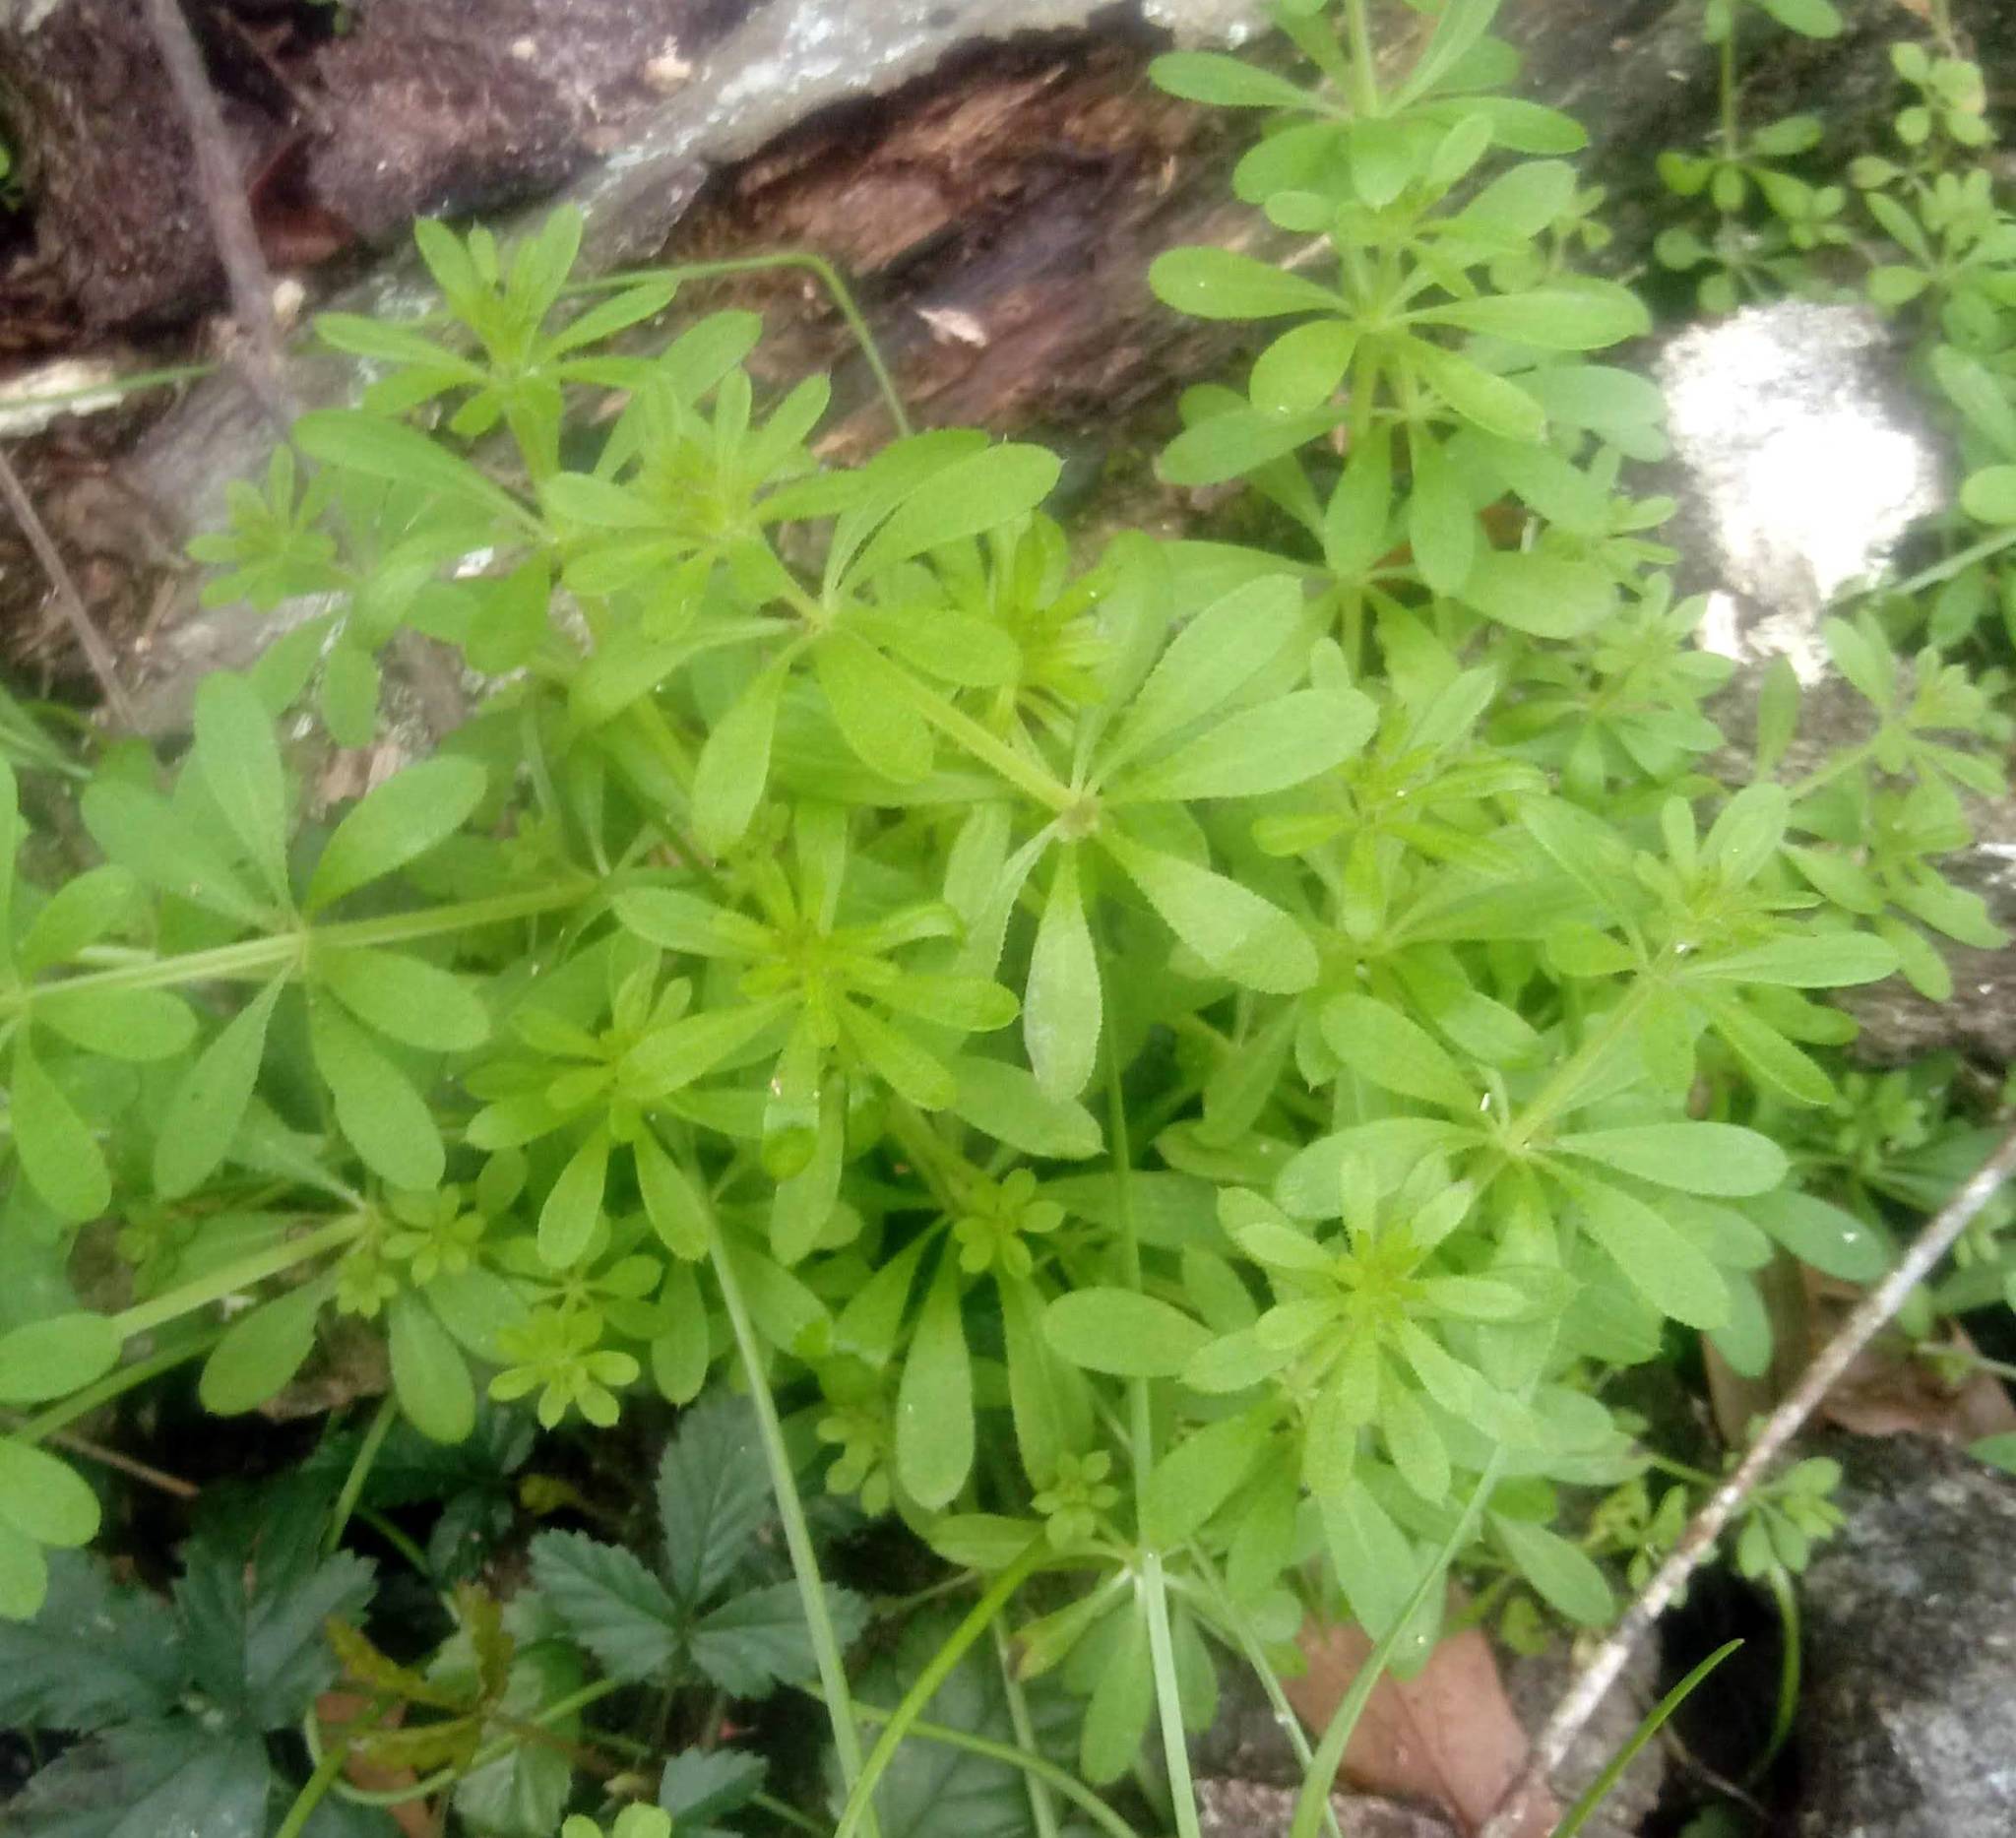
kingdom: Plantae
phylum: Tracheophyta
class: Magnoliopsida
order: Gentianales
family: Rubiaceae
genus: Galium
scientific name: Galium aparine
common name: Cleavers
